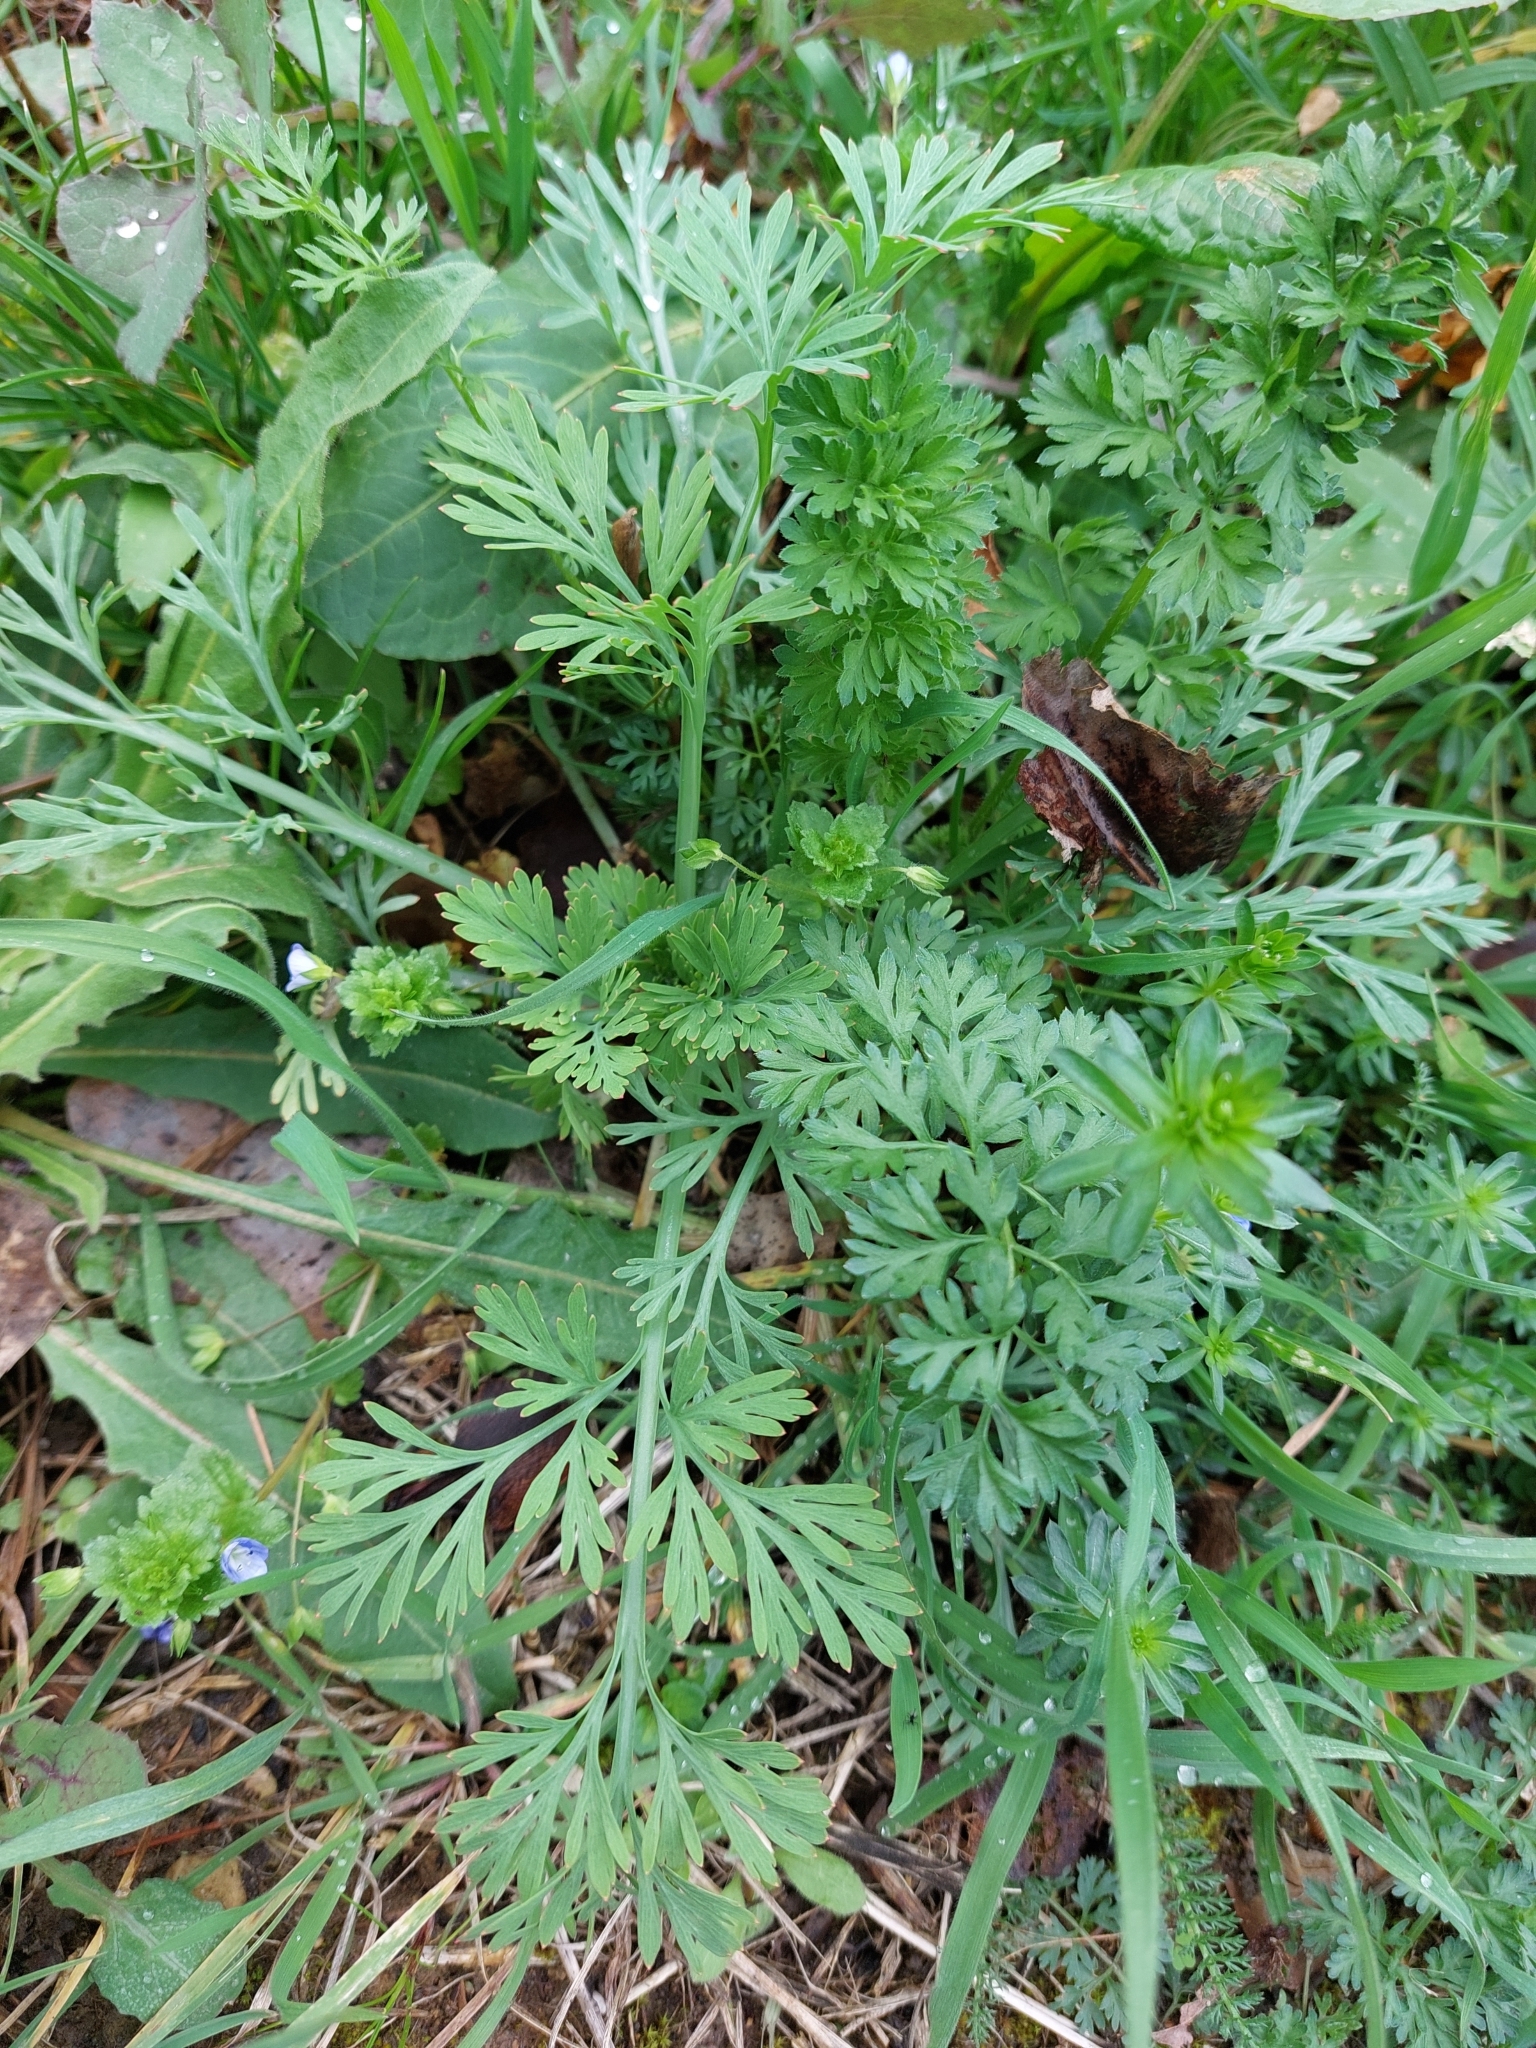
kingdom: Plantae
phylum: Tracheophyta
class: Magnoliopsida
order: Ranunculales
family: Papaveraceae
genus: Eschscholzia
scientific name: Eschscholzia californica
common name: California poppy
